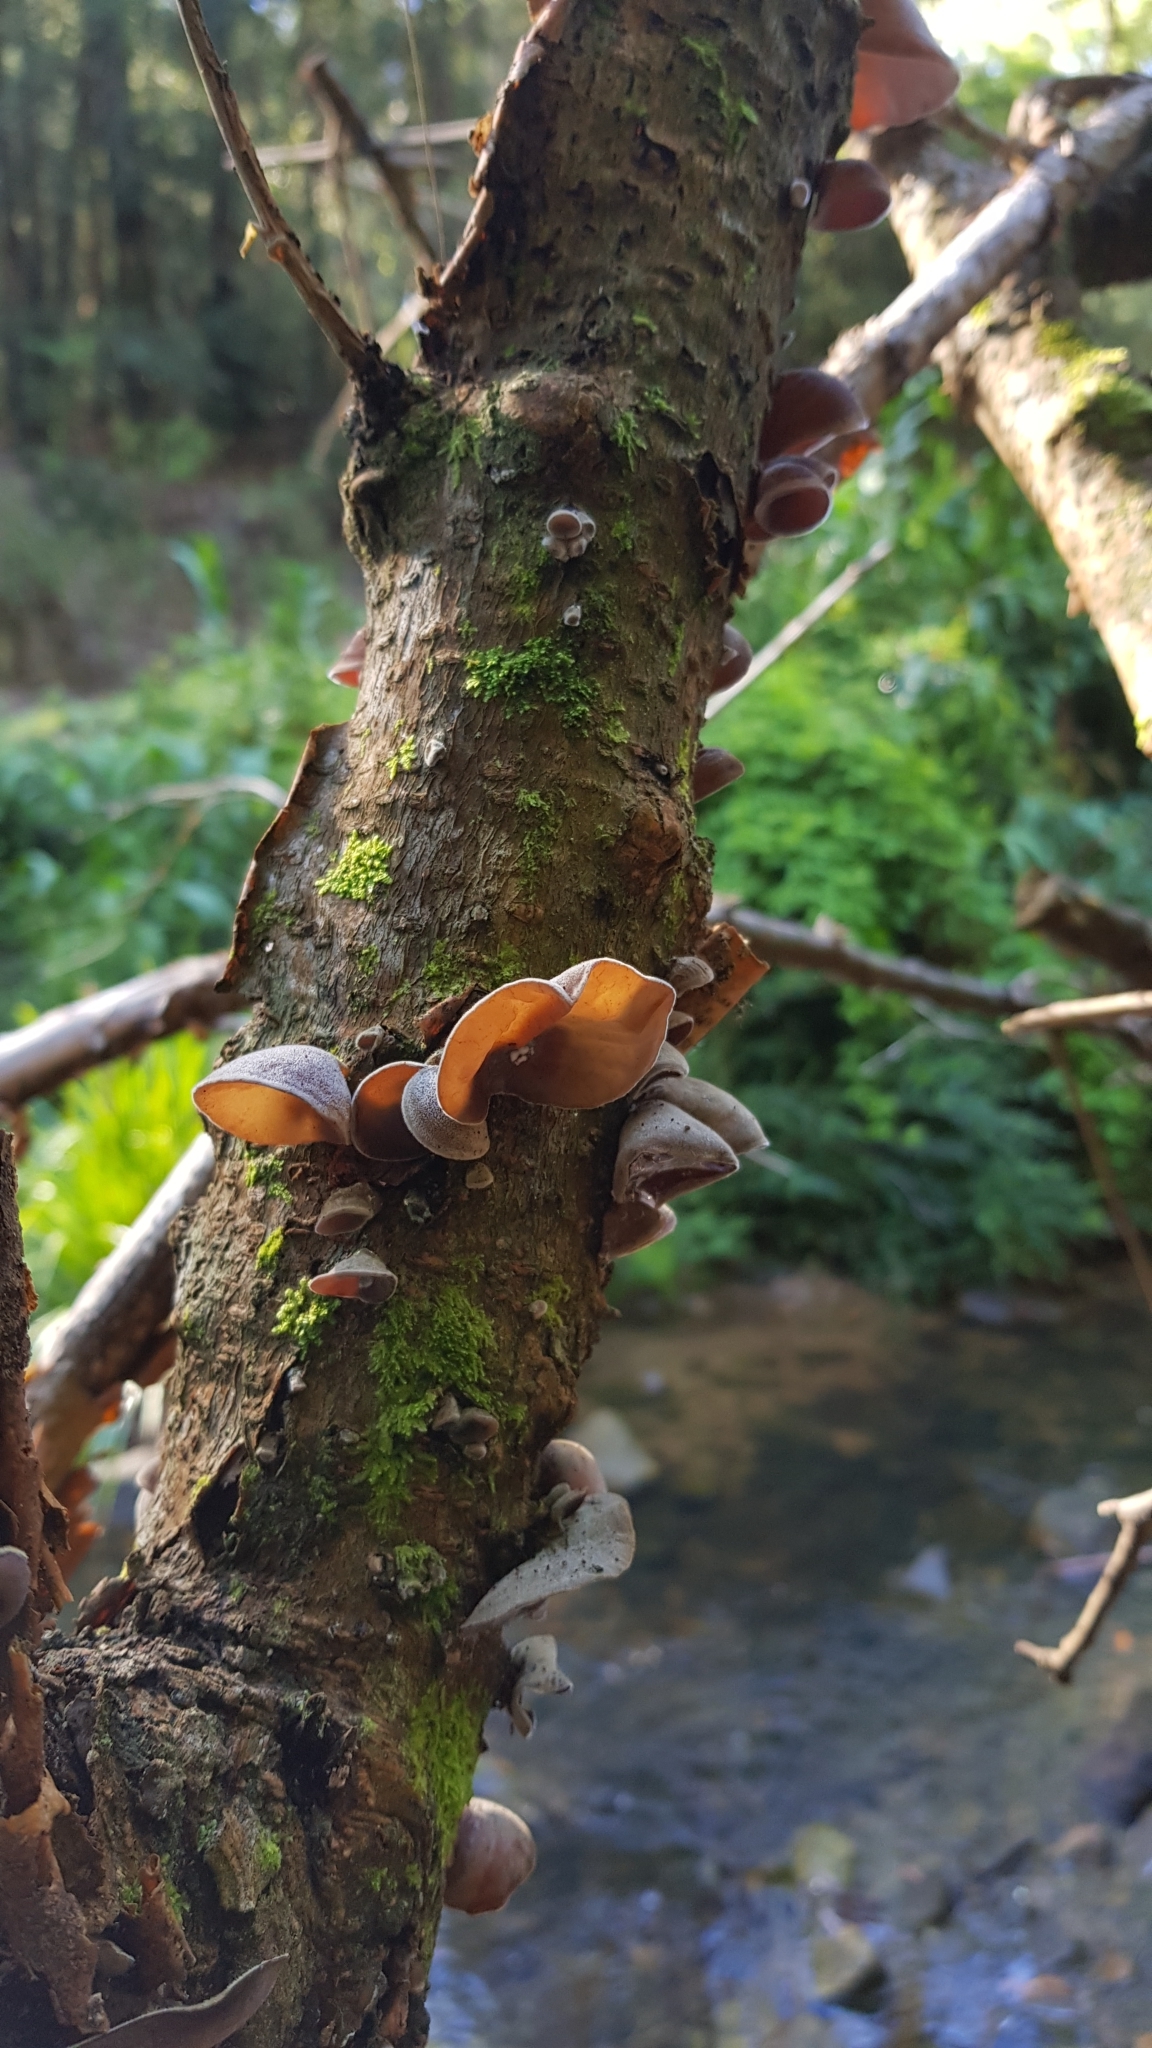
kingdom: Fungi
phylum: Basidiomycota
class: Agaricomycetes
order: Auriculariales
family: Auriculariaceae
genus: Auricularia
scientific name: Auricularia cornea
